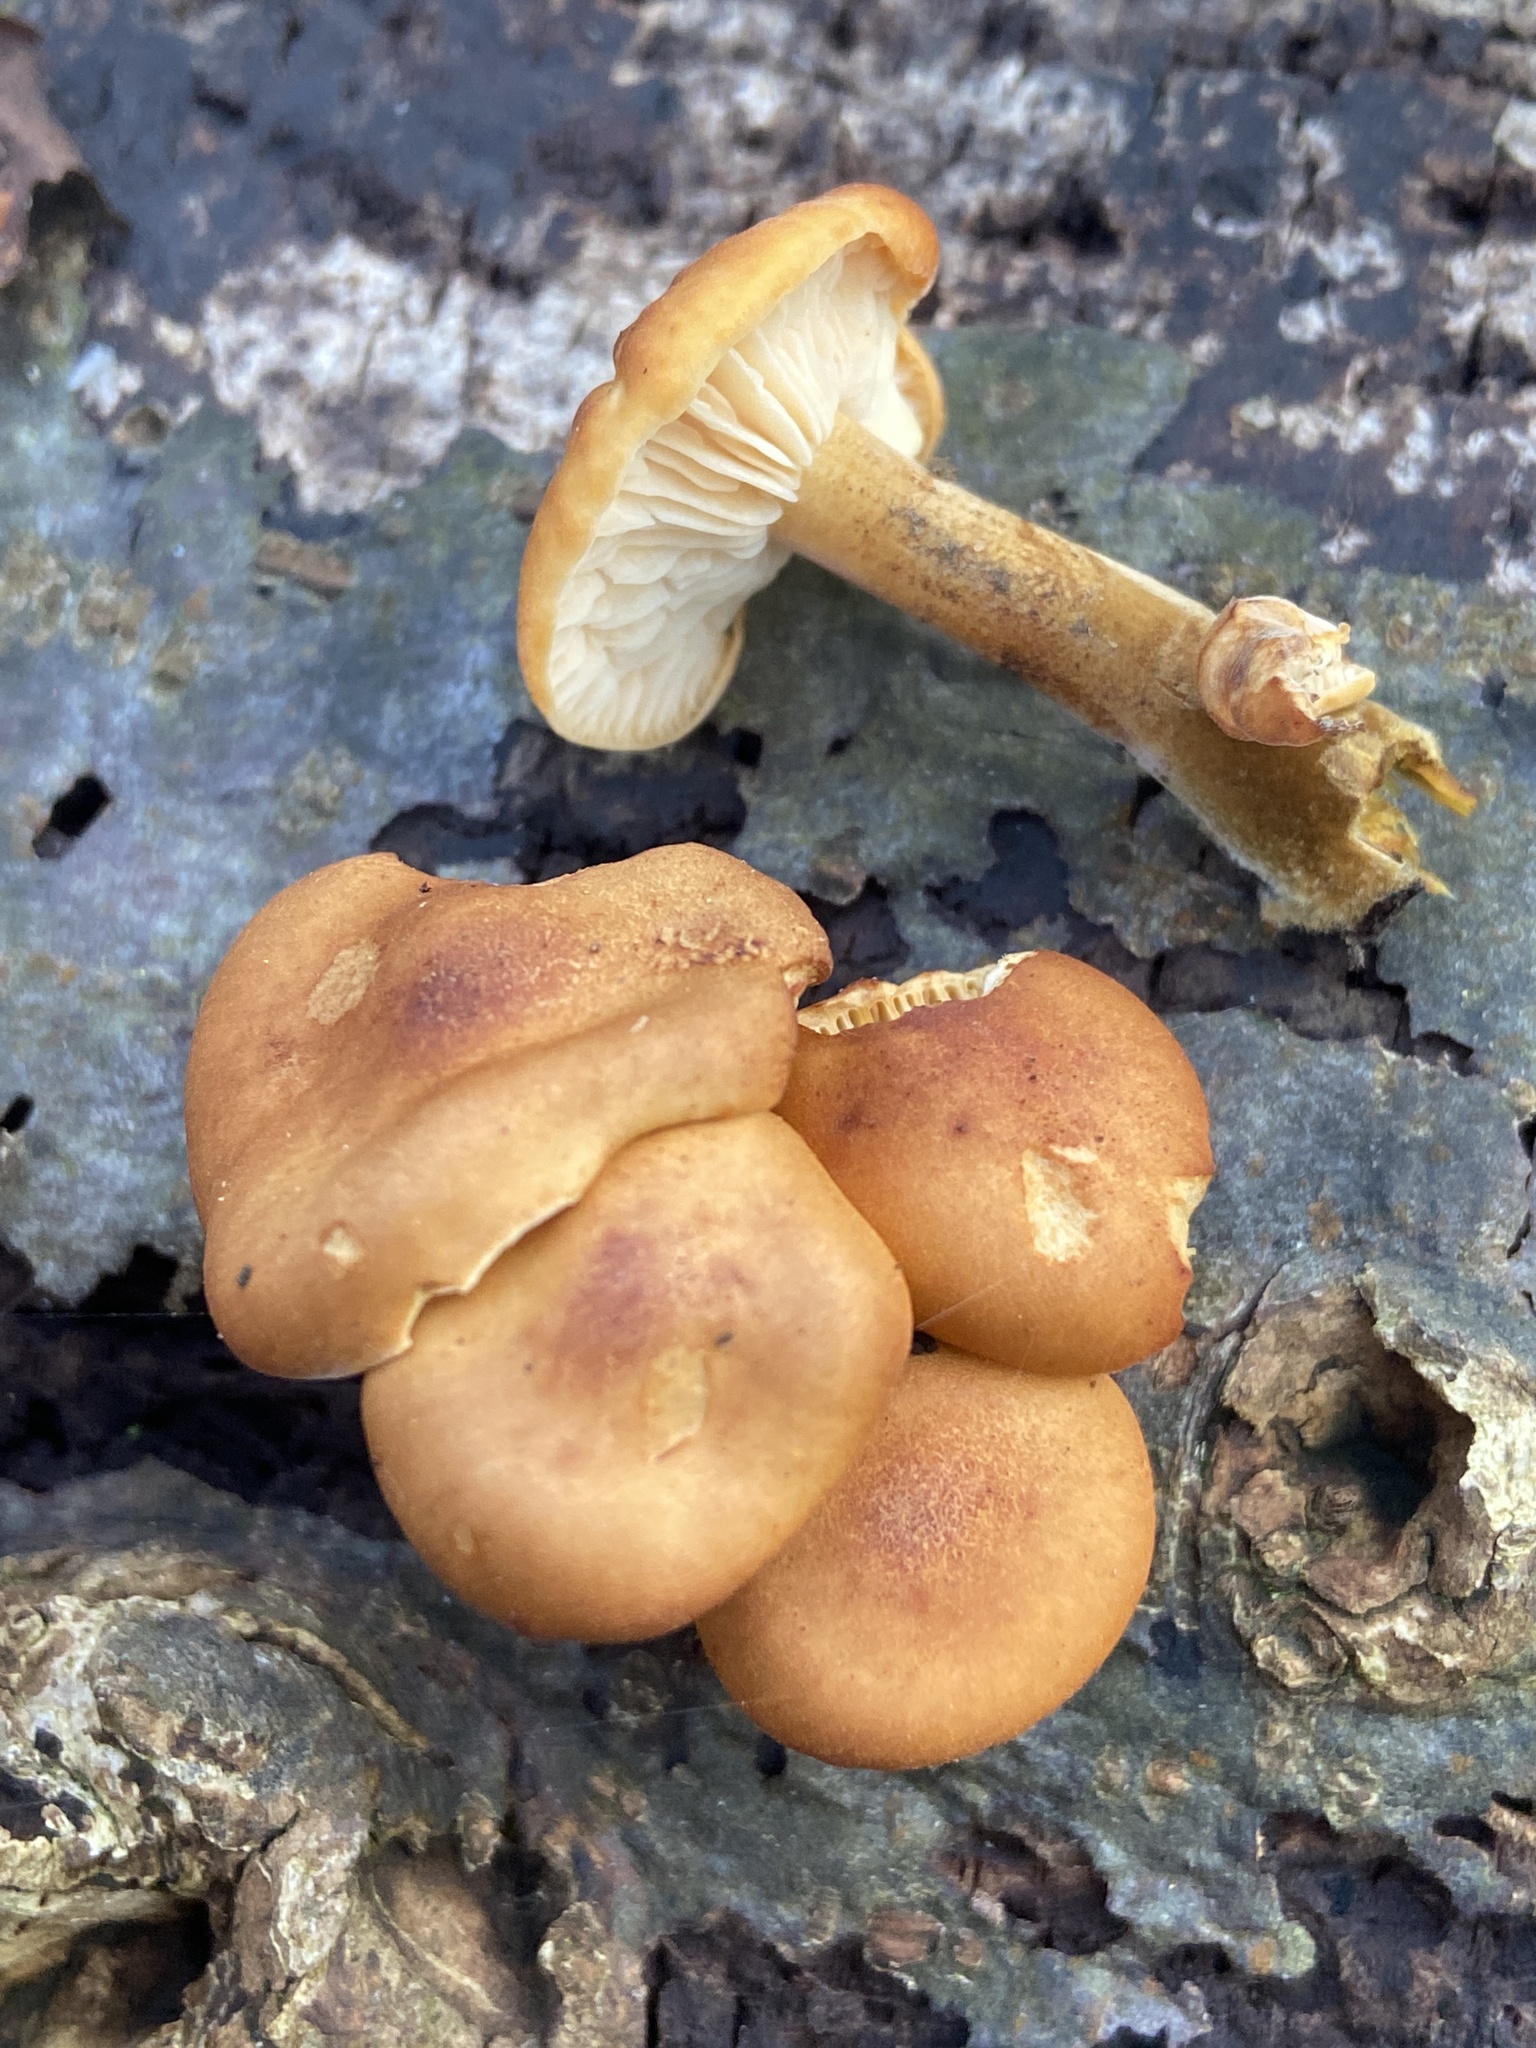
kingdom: Fungi
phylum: Basidiomycota
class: Agaricomycetes
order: Agaricales
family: Physalacriaceae
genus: Flammulina
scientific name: Flammulina
